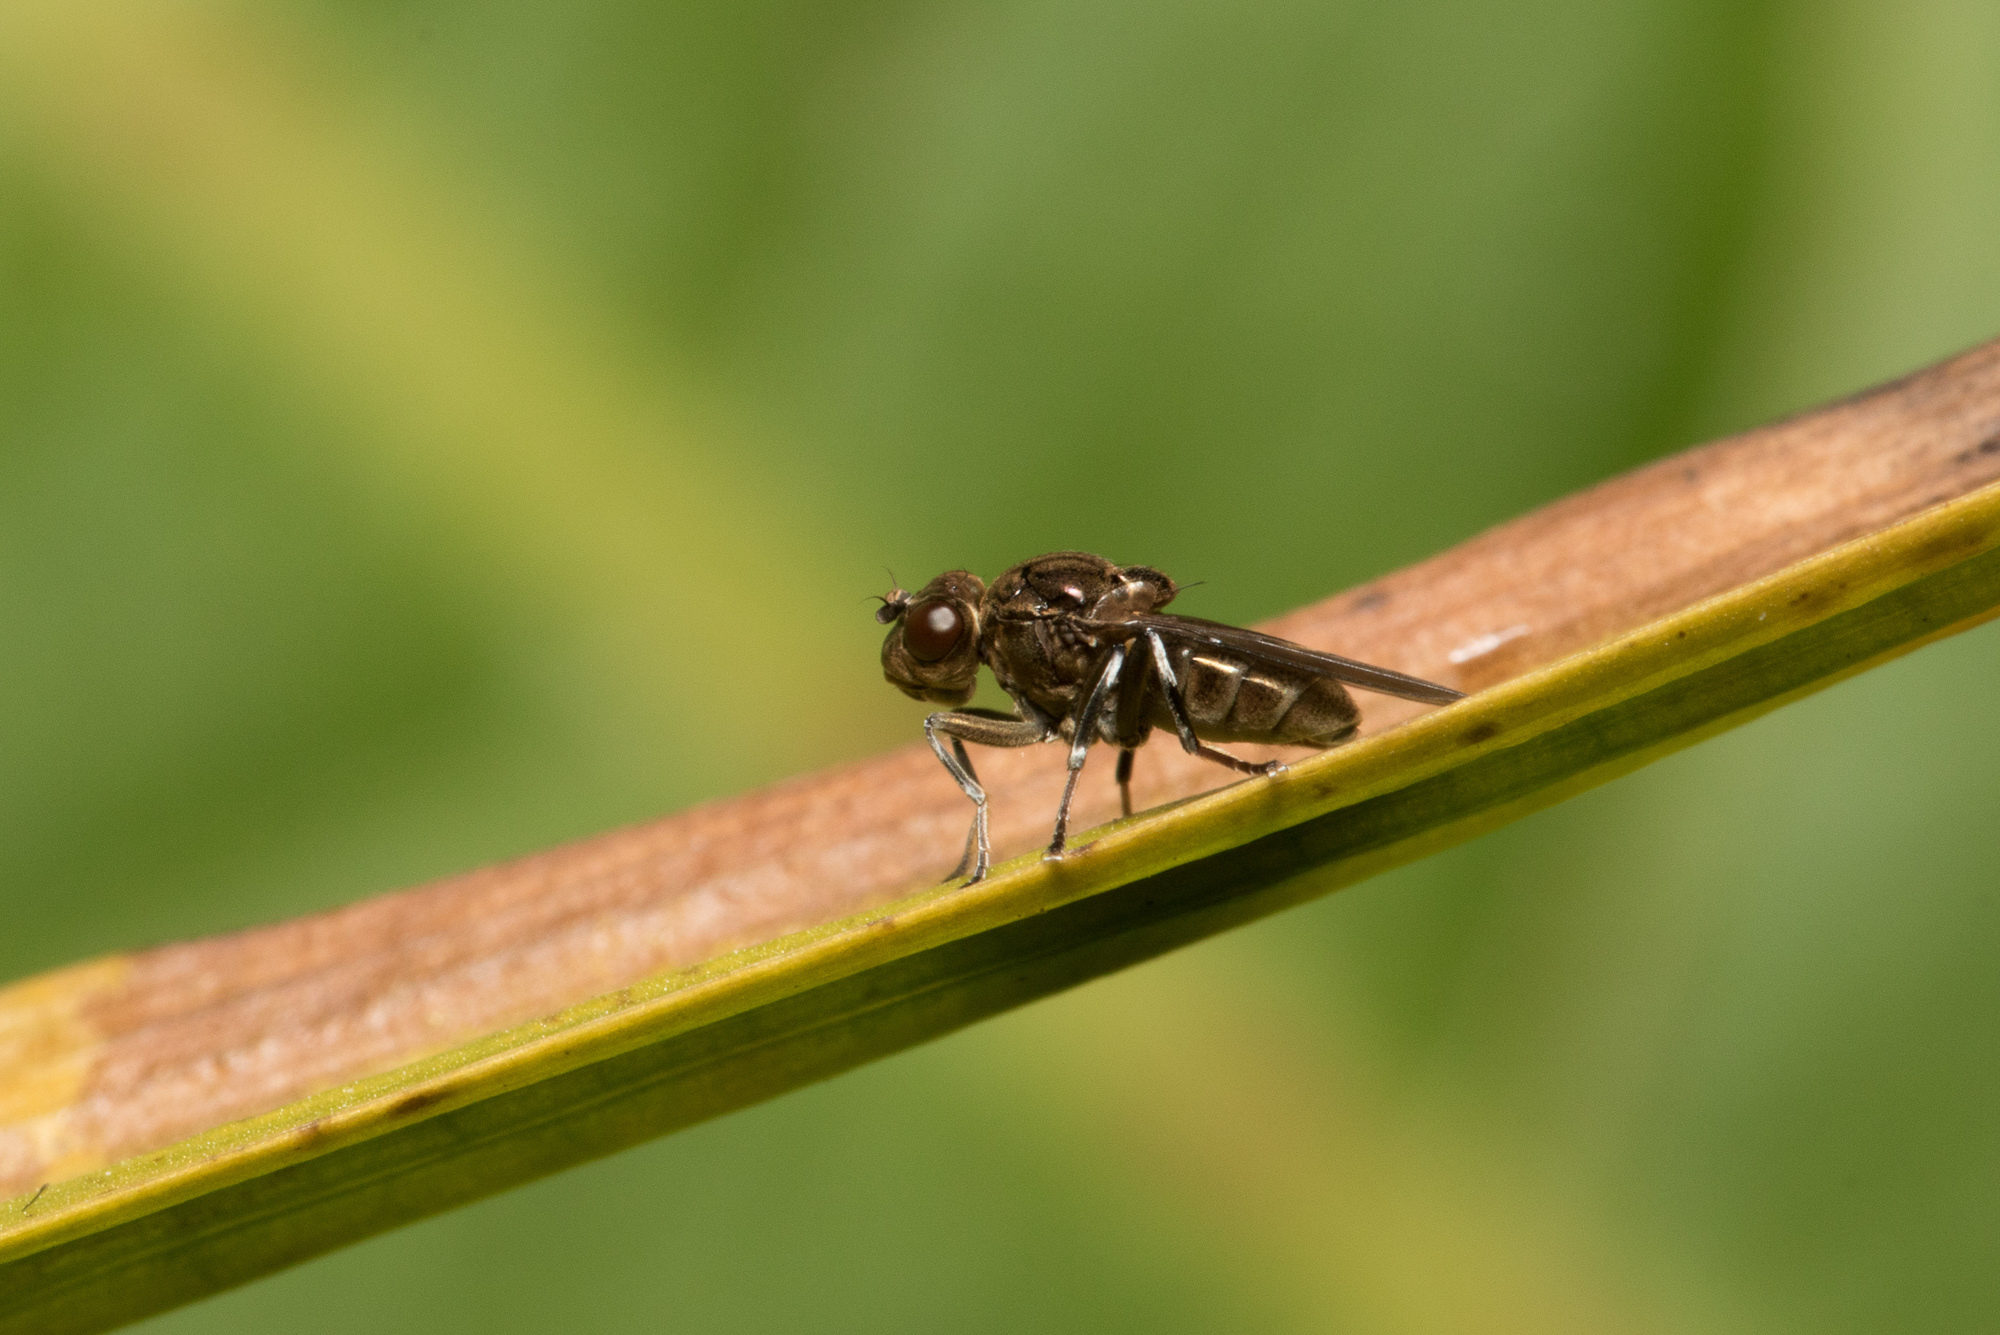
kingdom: Animalia
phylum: Arthropoda
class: Insecta
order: Diptera
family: Ephydridae
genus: Parydra
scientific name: Parydra aquila
